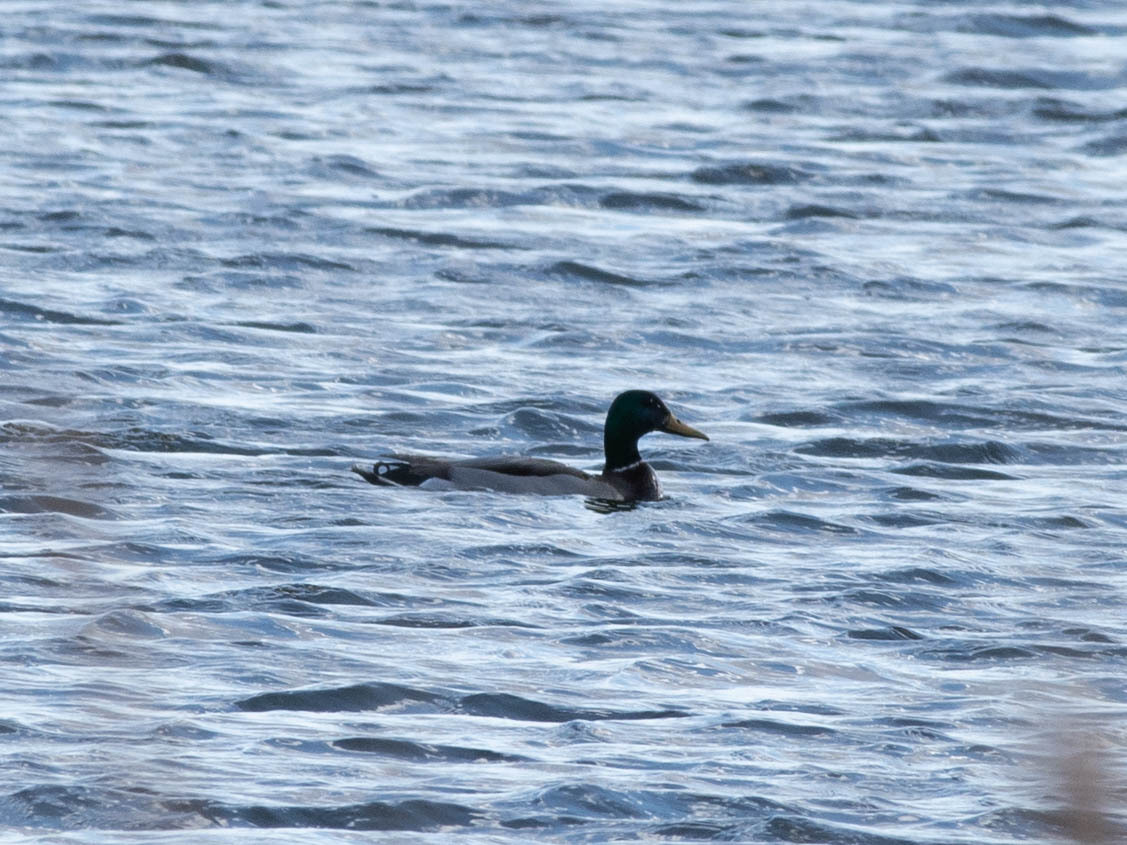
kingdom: Animalia
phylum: Chordata
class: Aves
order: Anseriformes
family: Anatidae
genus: Anas
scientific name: Anas platyrhynchos
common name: Mallard
